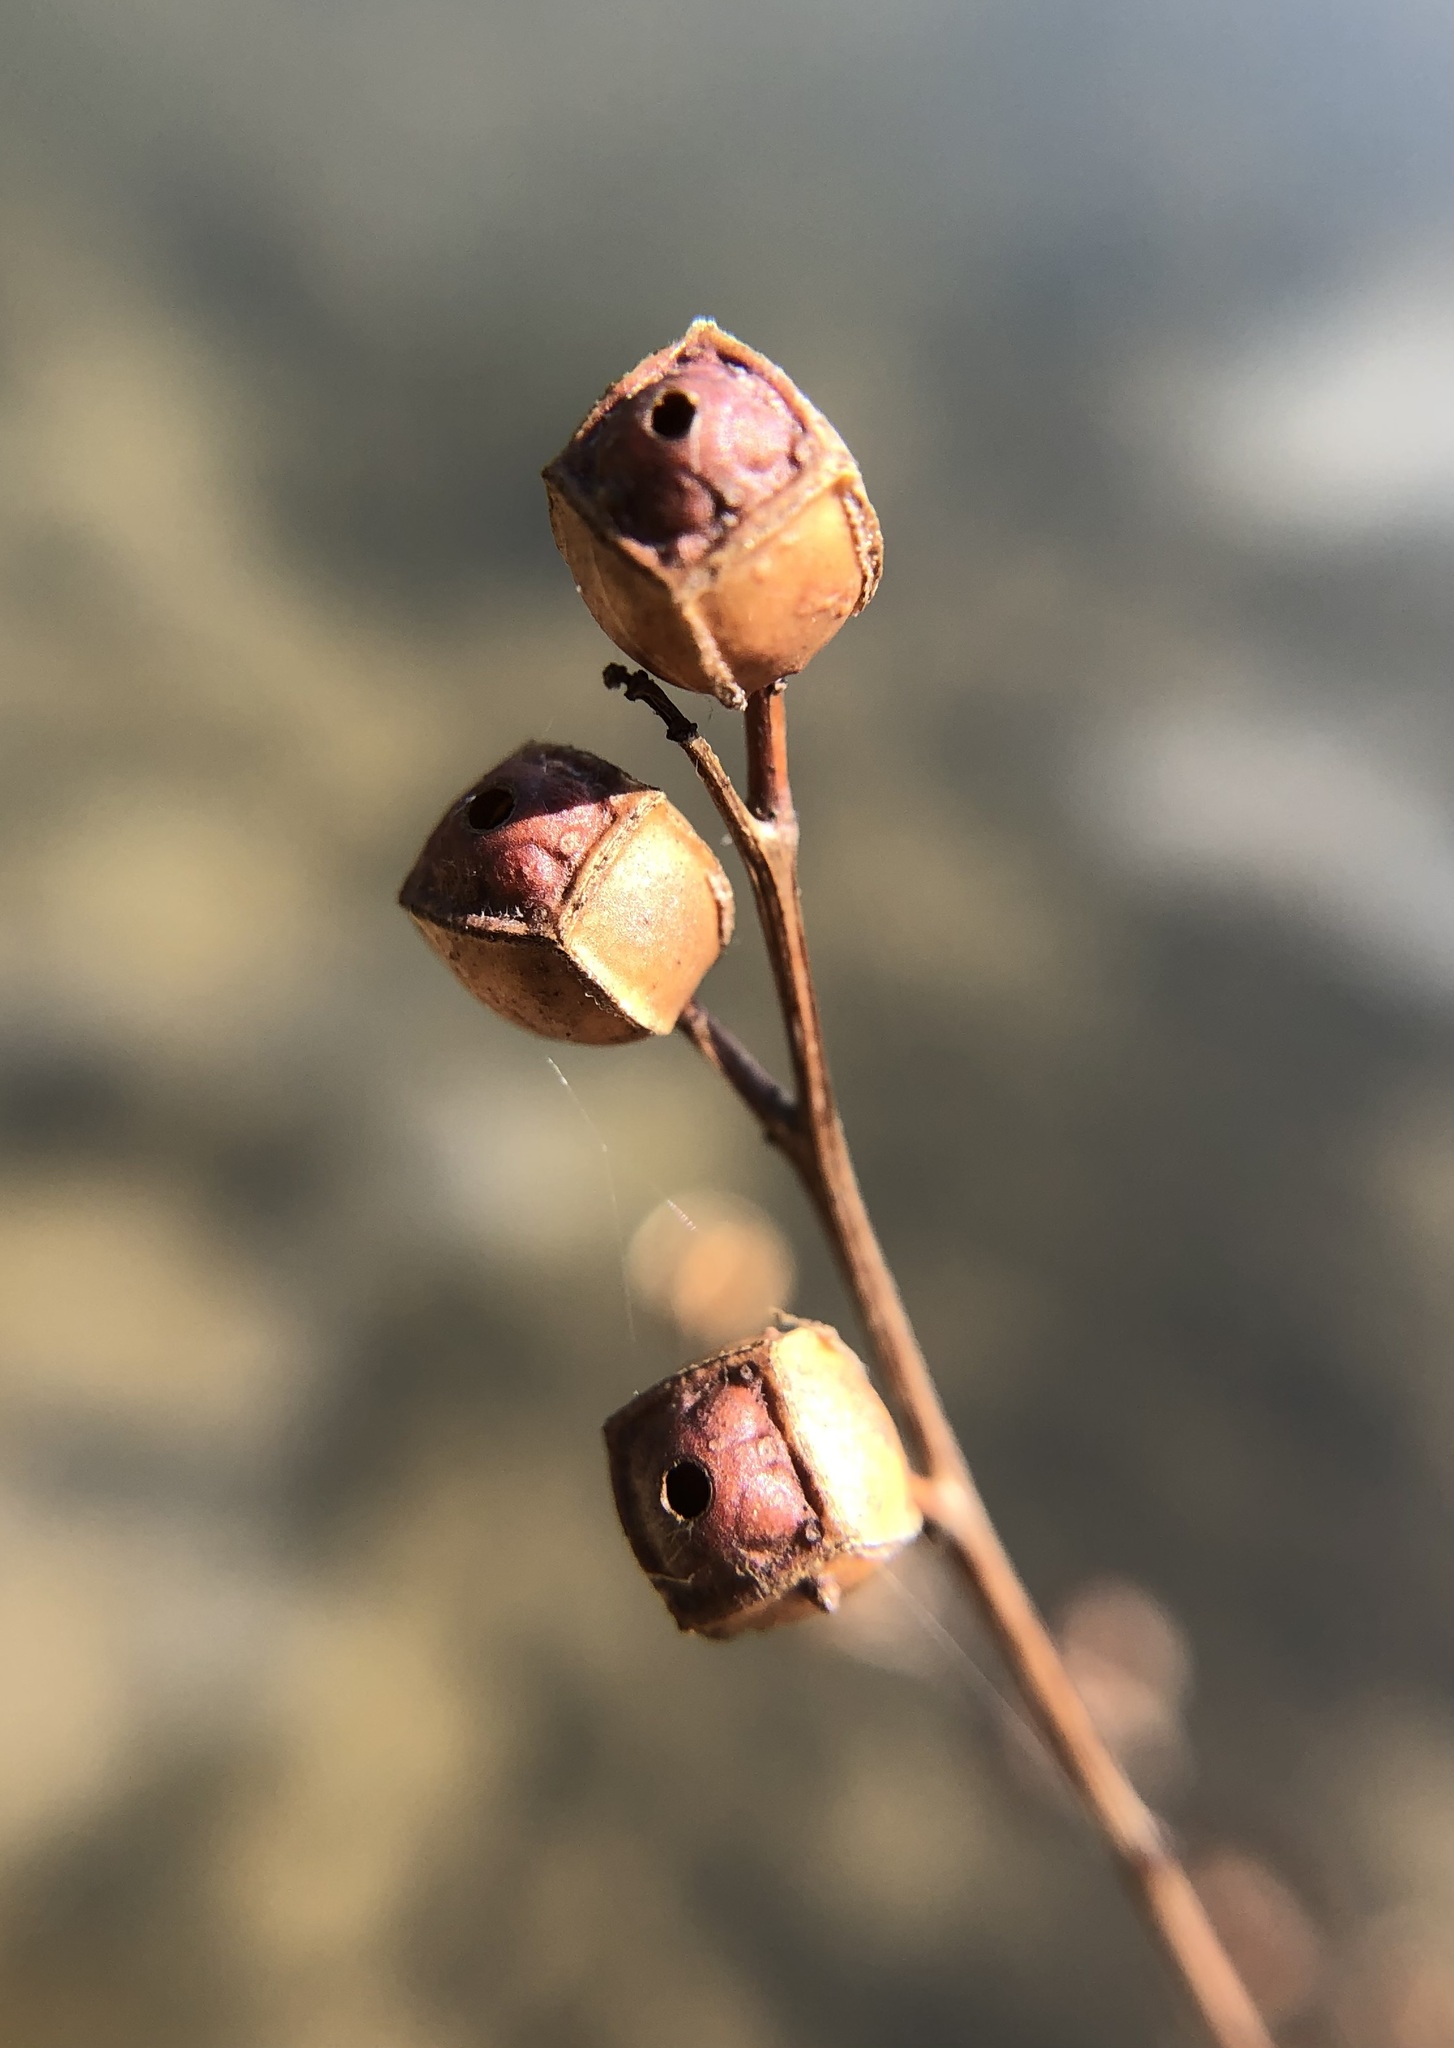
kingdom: Plantae
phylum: Tracheophyta
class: Magnoliopsida
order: Myrtales
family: Onagraceae
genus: Ludwigia
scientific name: Ludwigia alternifolia
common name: Rattlebox
